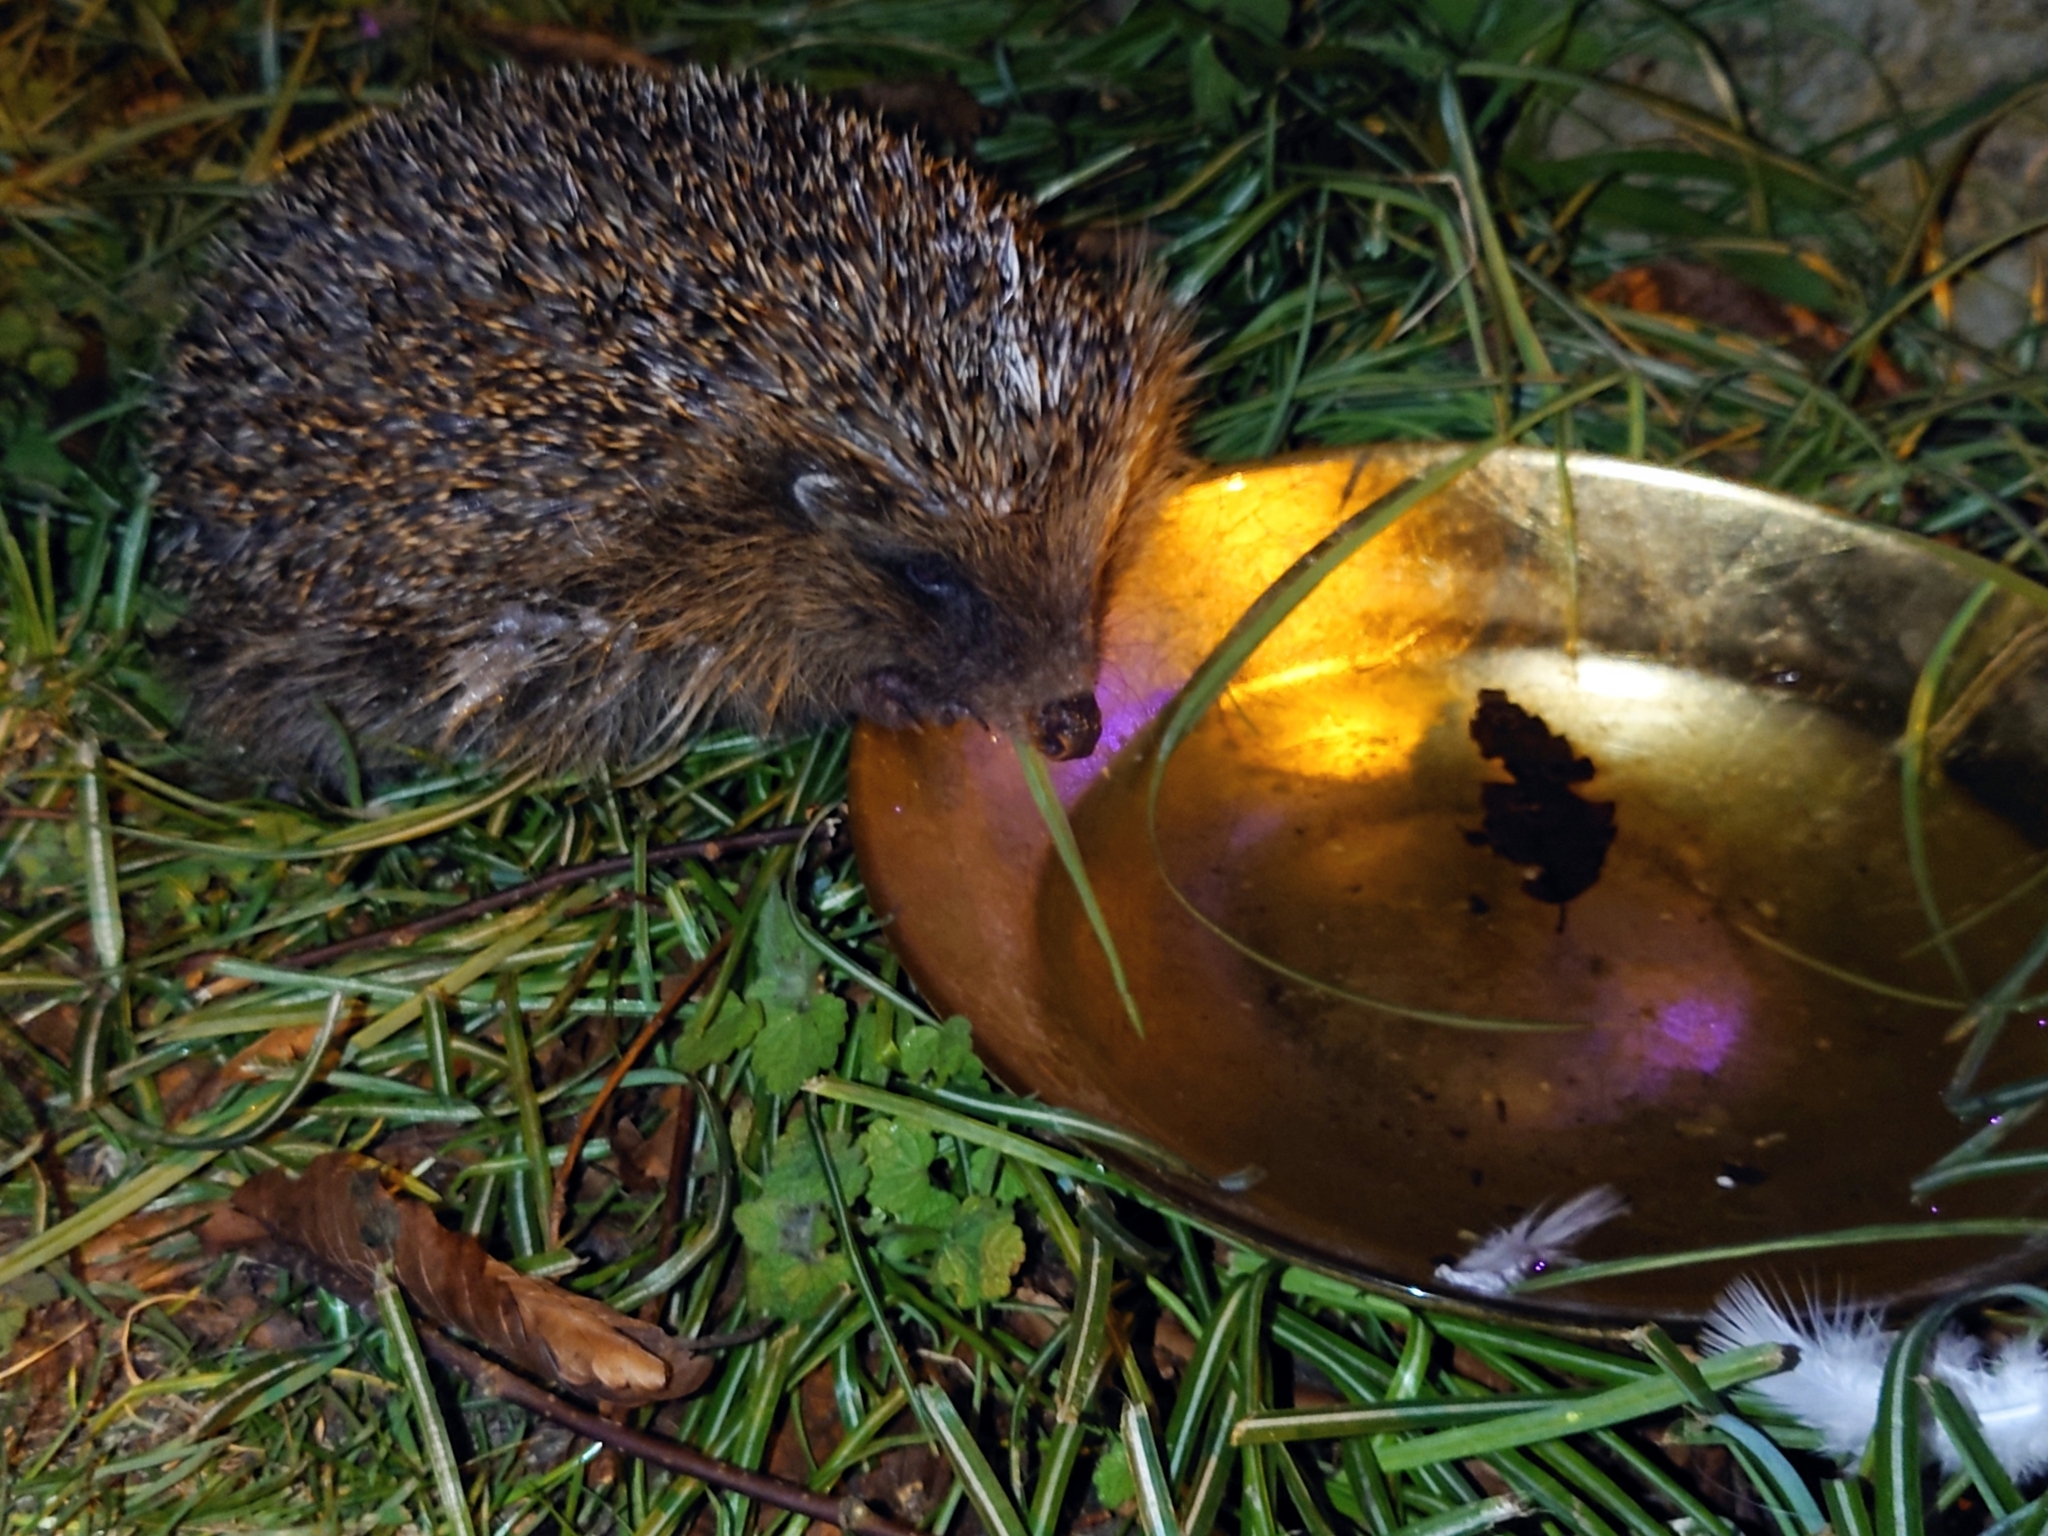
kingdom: Animalia
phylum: Chordata
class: Mammalia
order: Erinaceomorpha
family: Erinaceidae
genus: Erinaceus
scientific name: Erinaceus europaeus
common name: West european hedgehog
